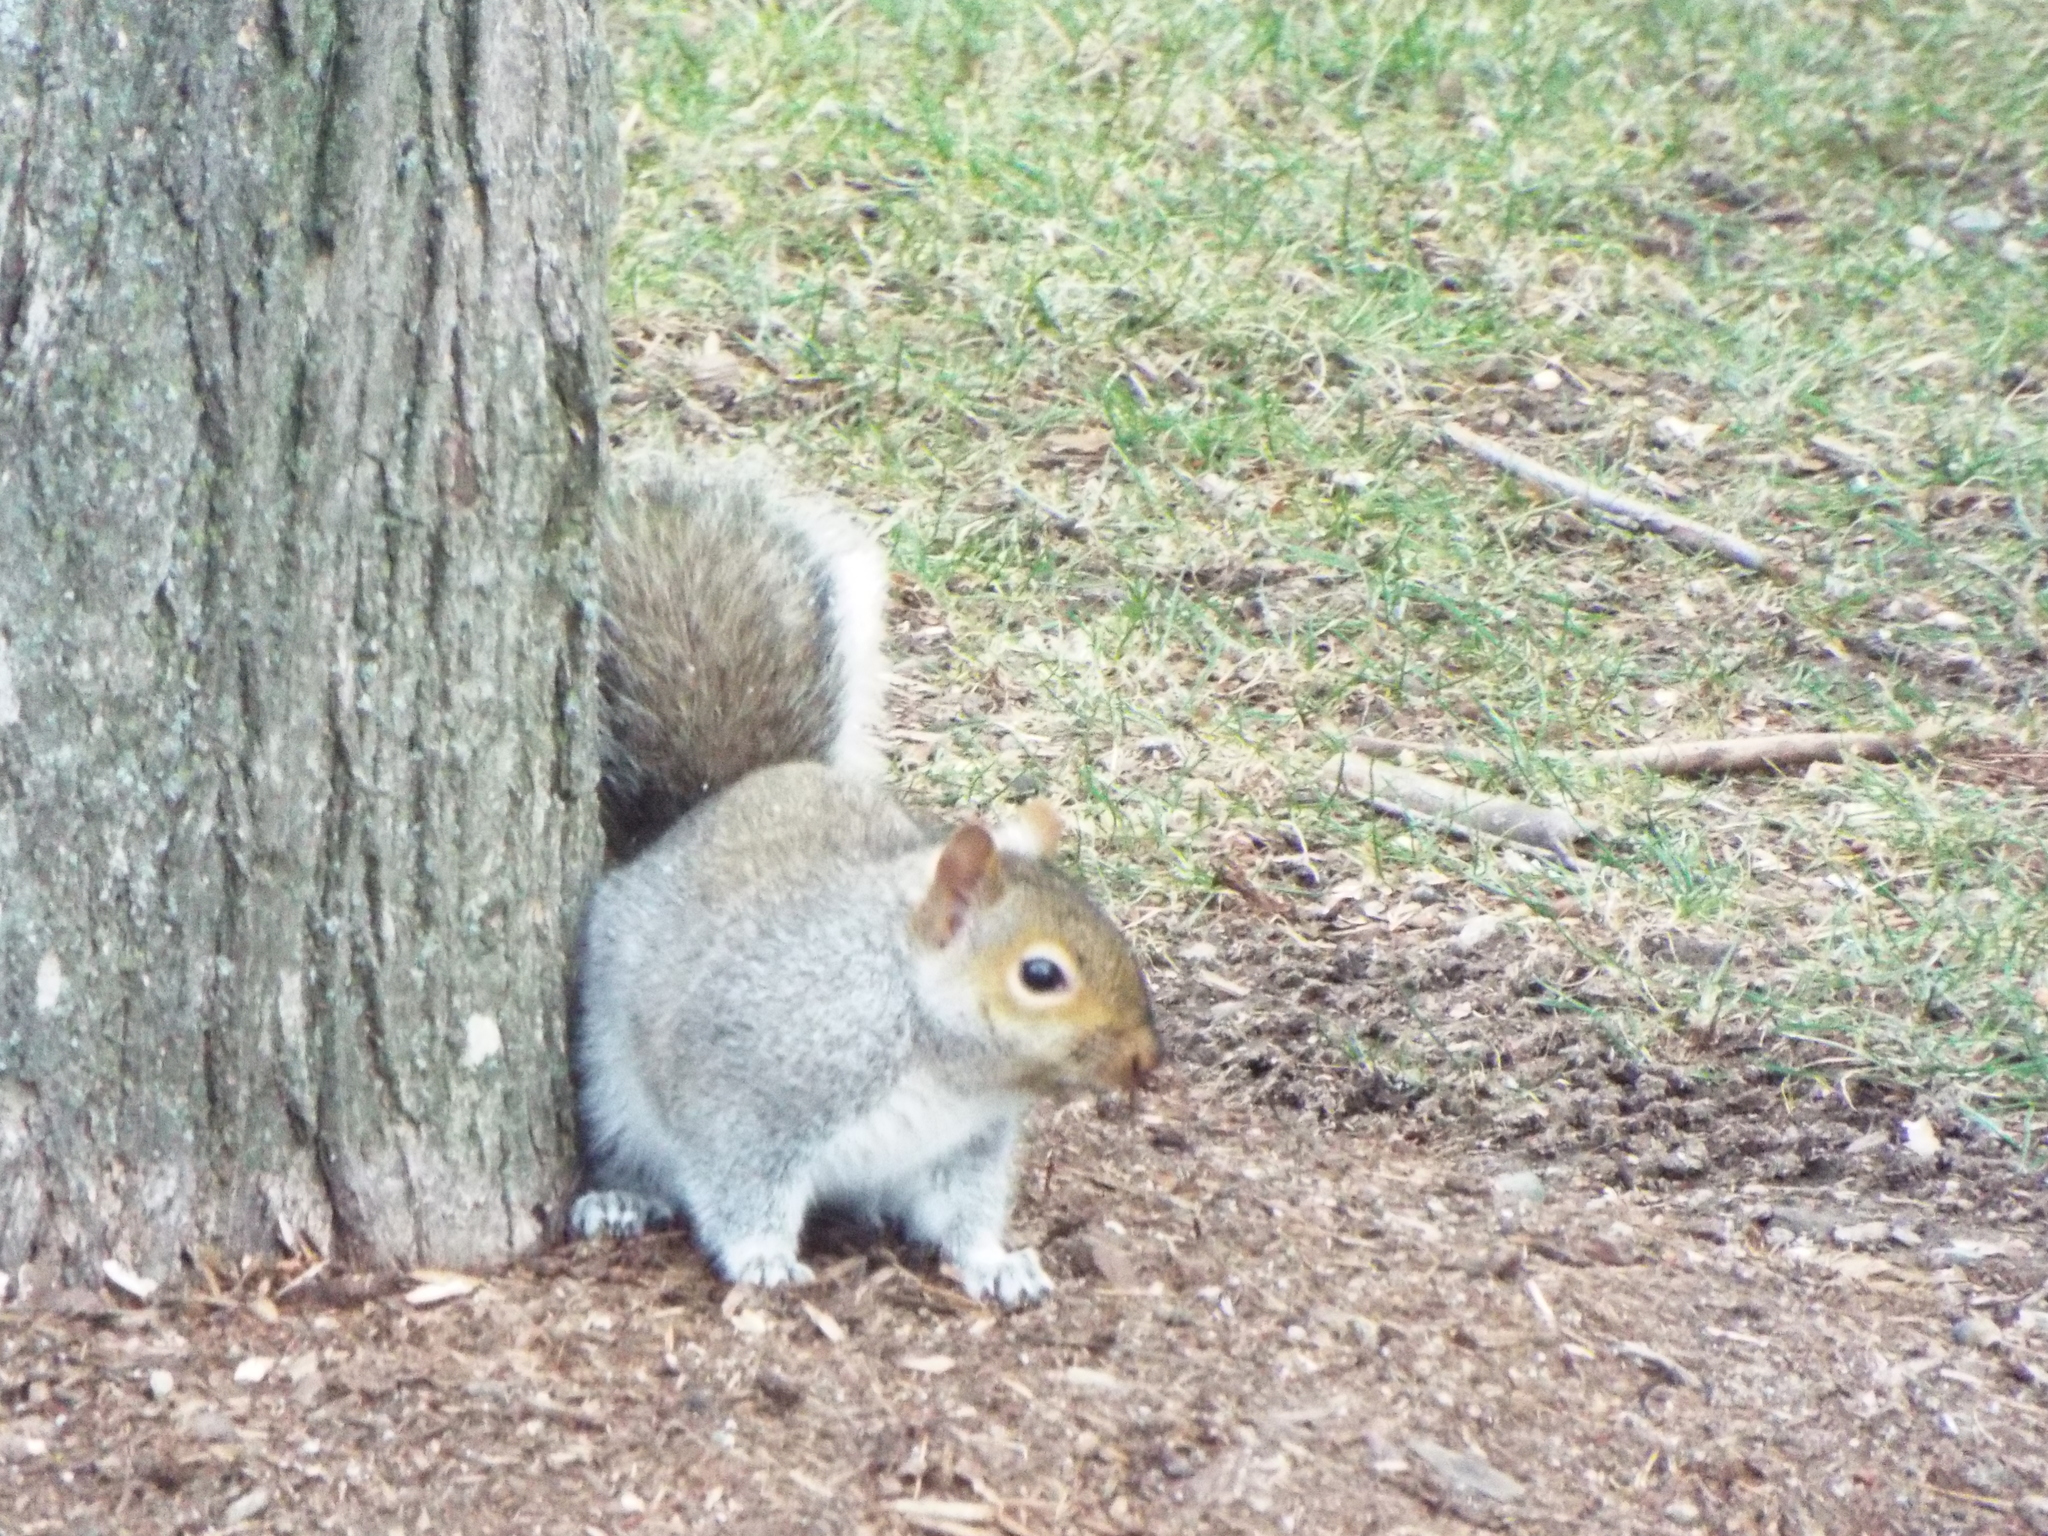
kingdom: Animalia
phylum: Chordata
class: Mammalia
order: Rodentia
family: Sciuridae
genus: Sciurus
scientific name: Sciurus carolinensis
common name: Eastern gray squirrel
